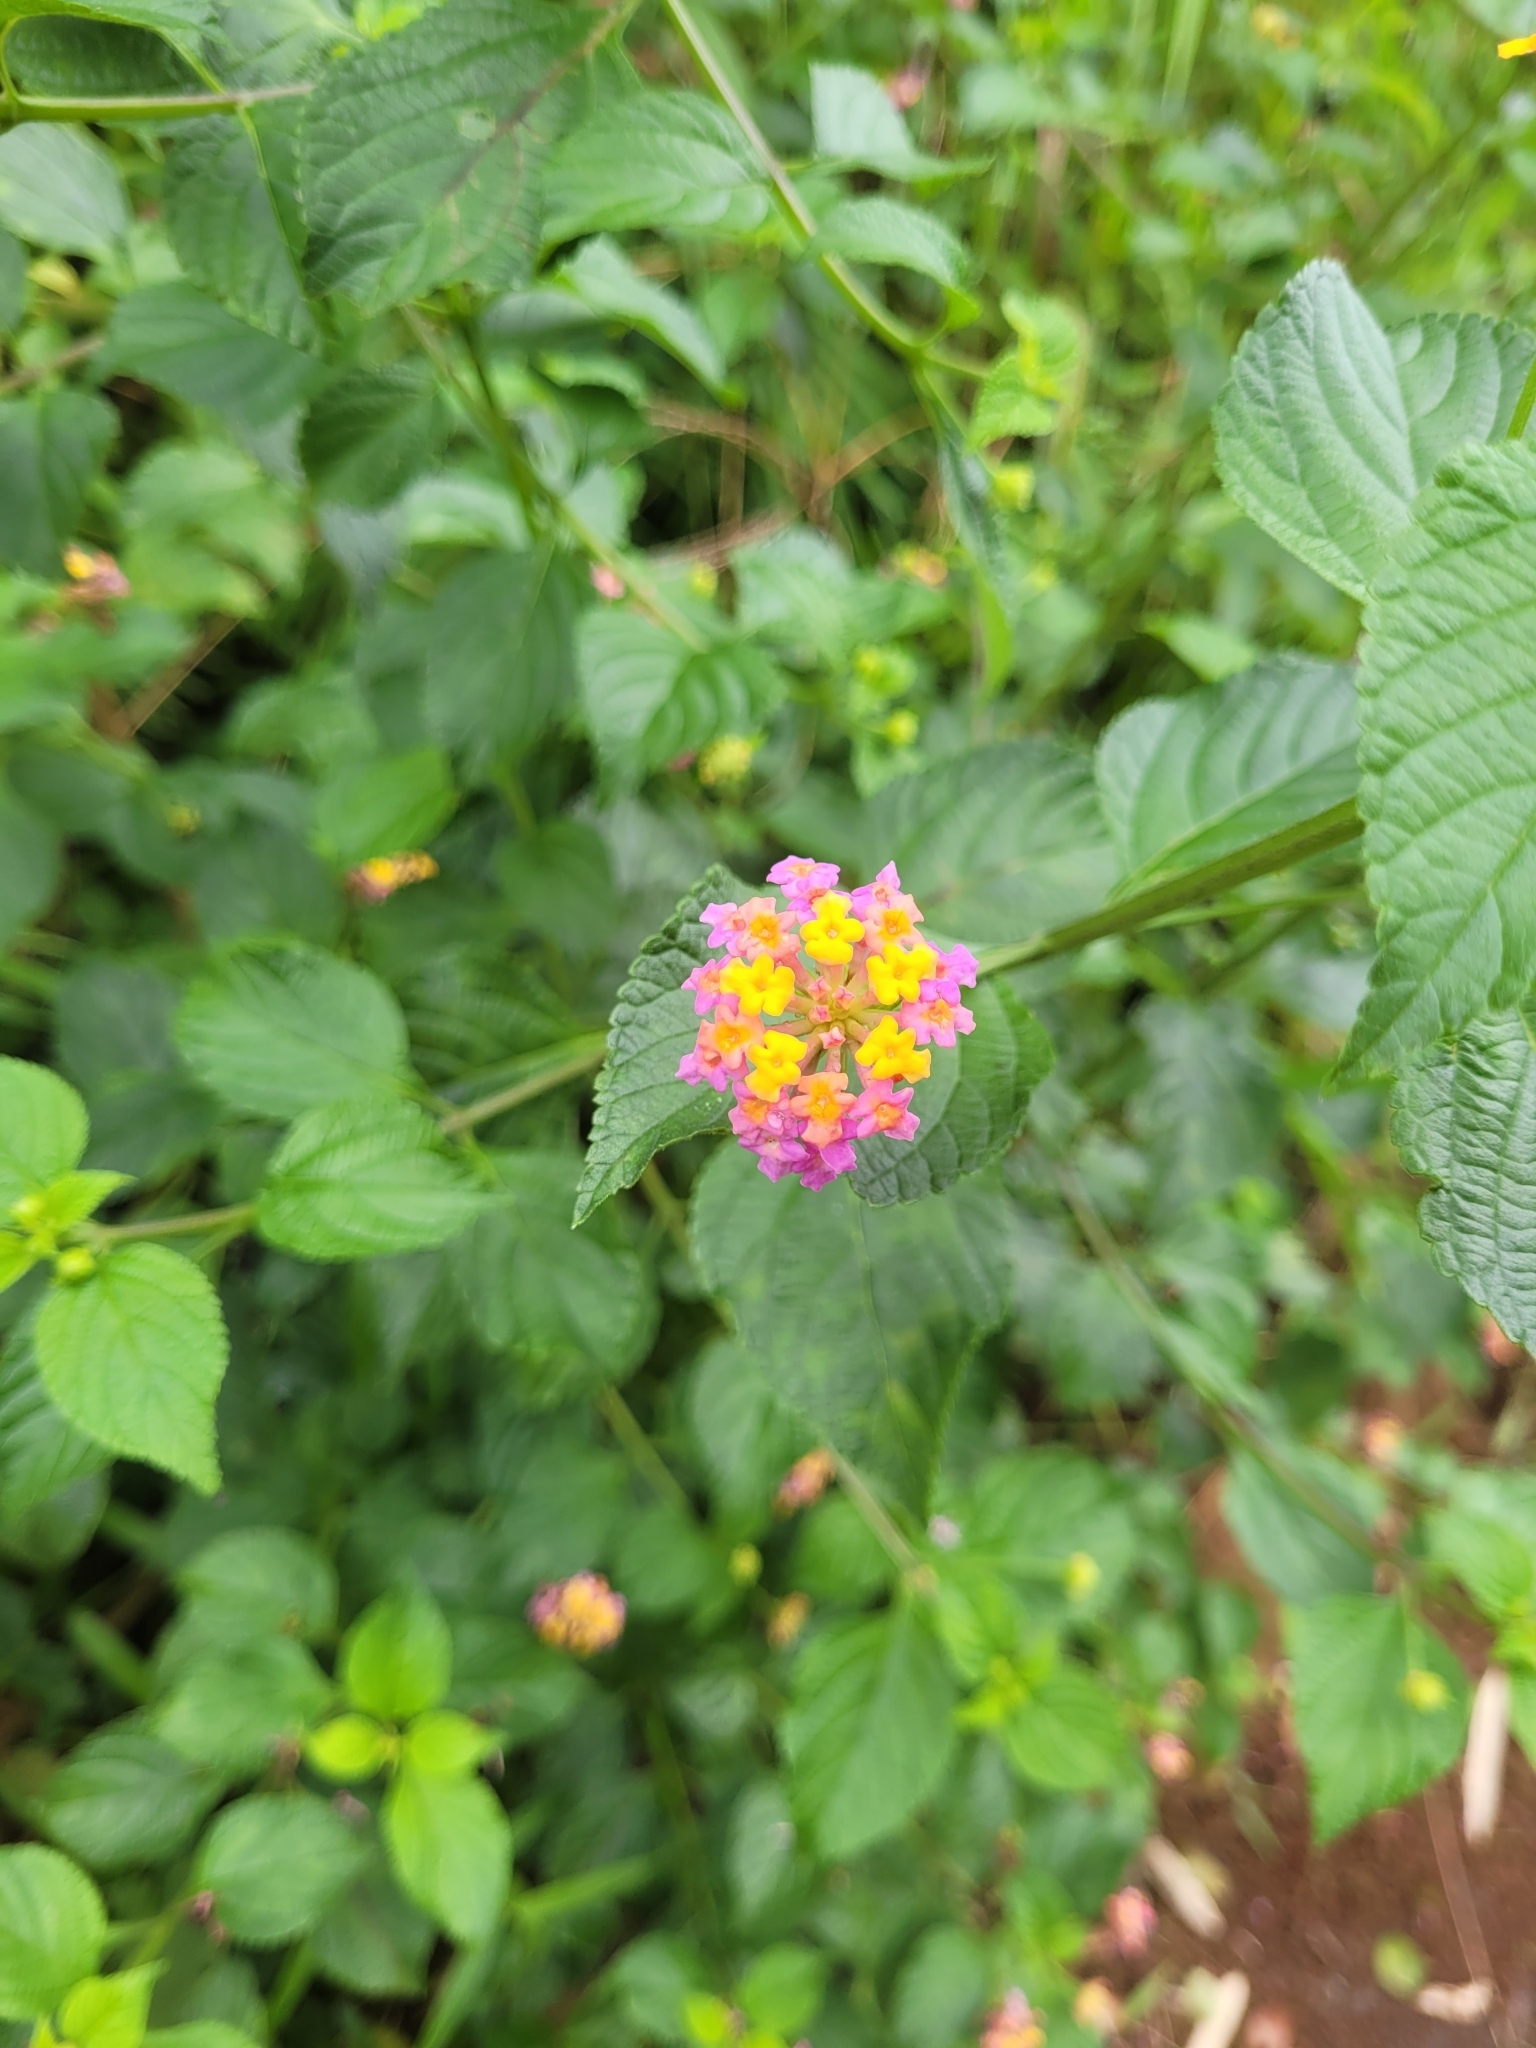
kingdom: Plantae
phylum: Tracheophyta
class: Magnoliopsida
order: Lamiales
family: Verbenaceae
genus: Lantana
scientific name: Lantana camara
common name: Lantana
